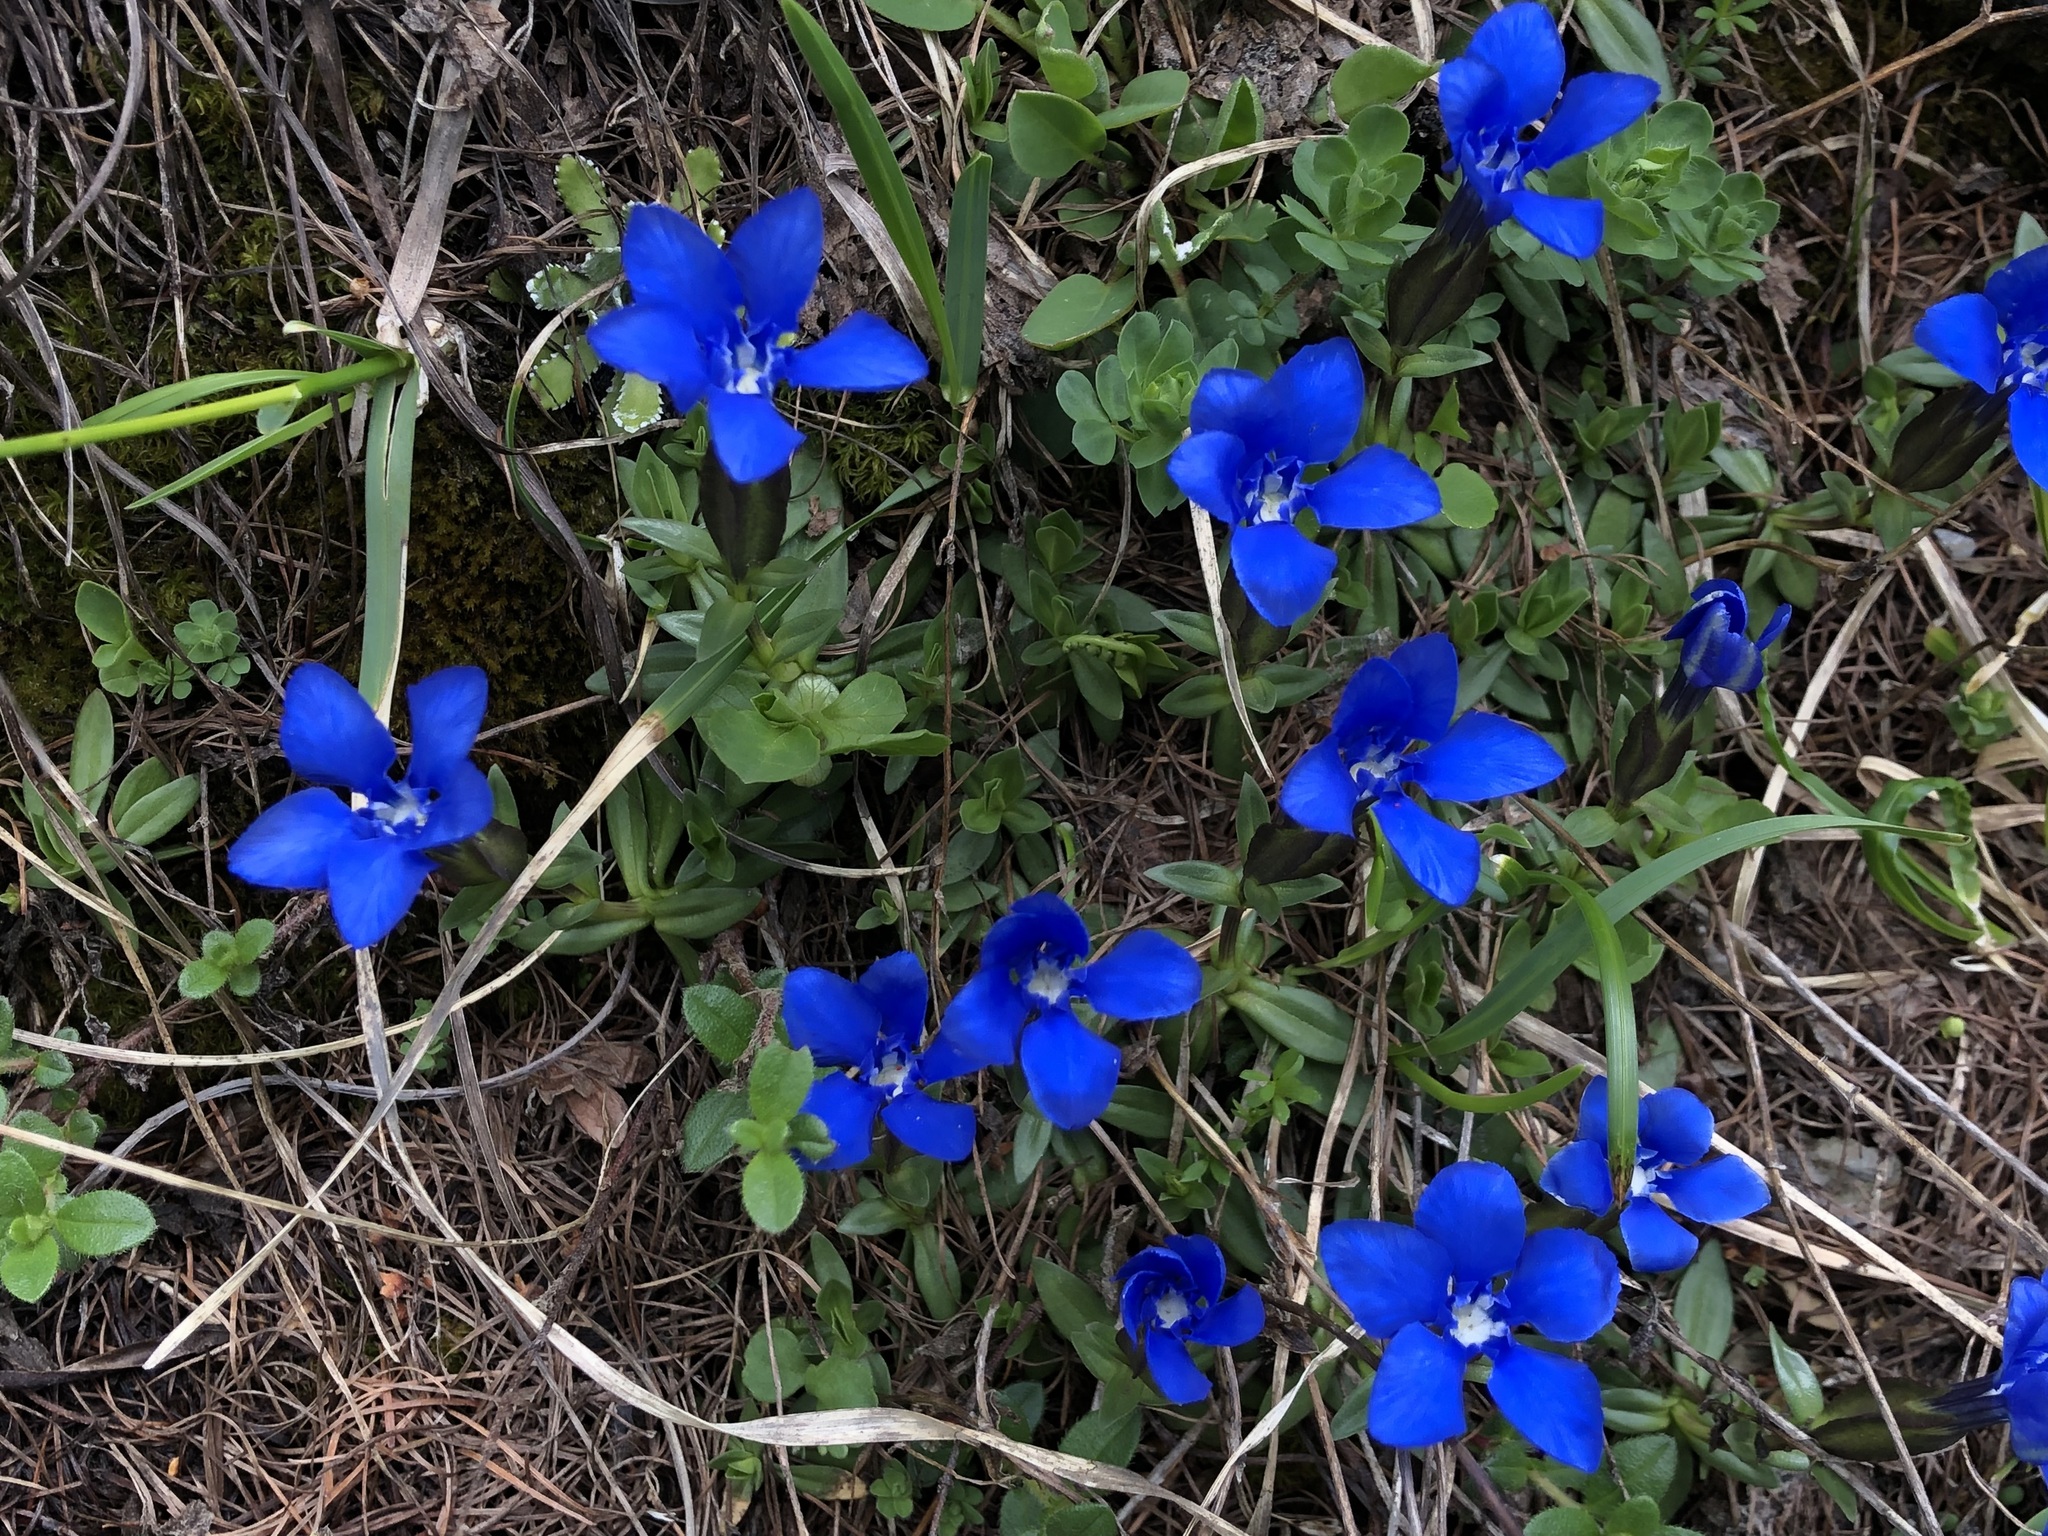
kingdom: Plantae
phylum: Tracheophyta
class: Magnoliopsida
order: Gentianales
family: Gentianaceae
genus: Gentiana
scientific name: Gentiana verna
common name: Spring gentian
